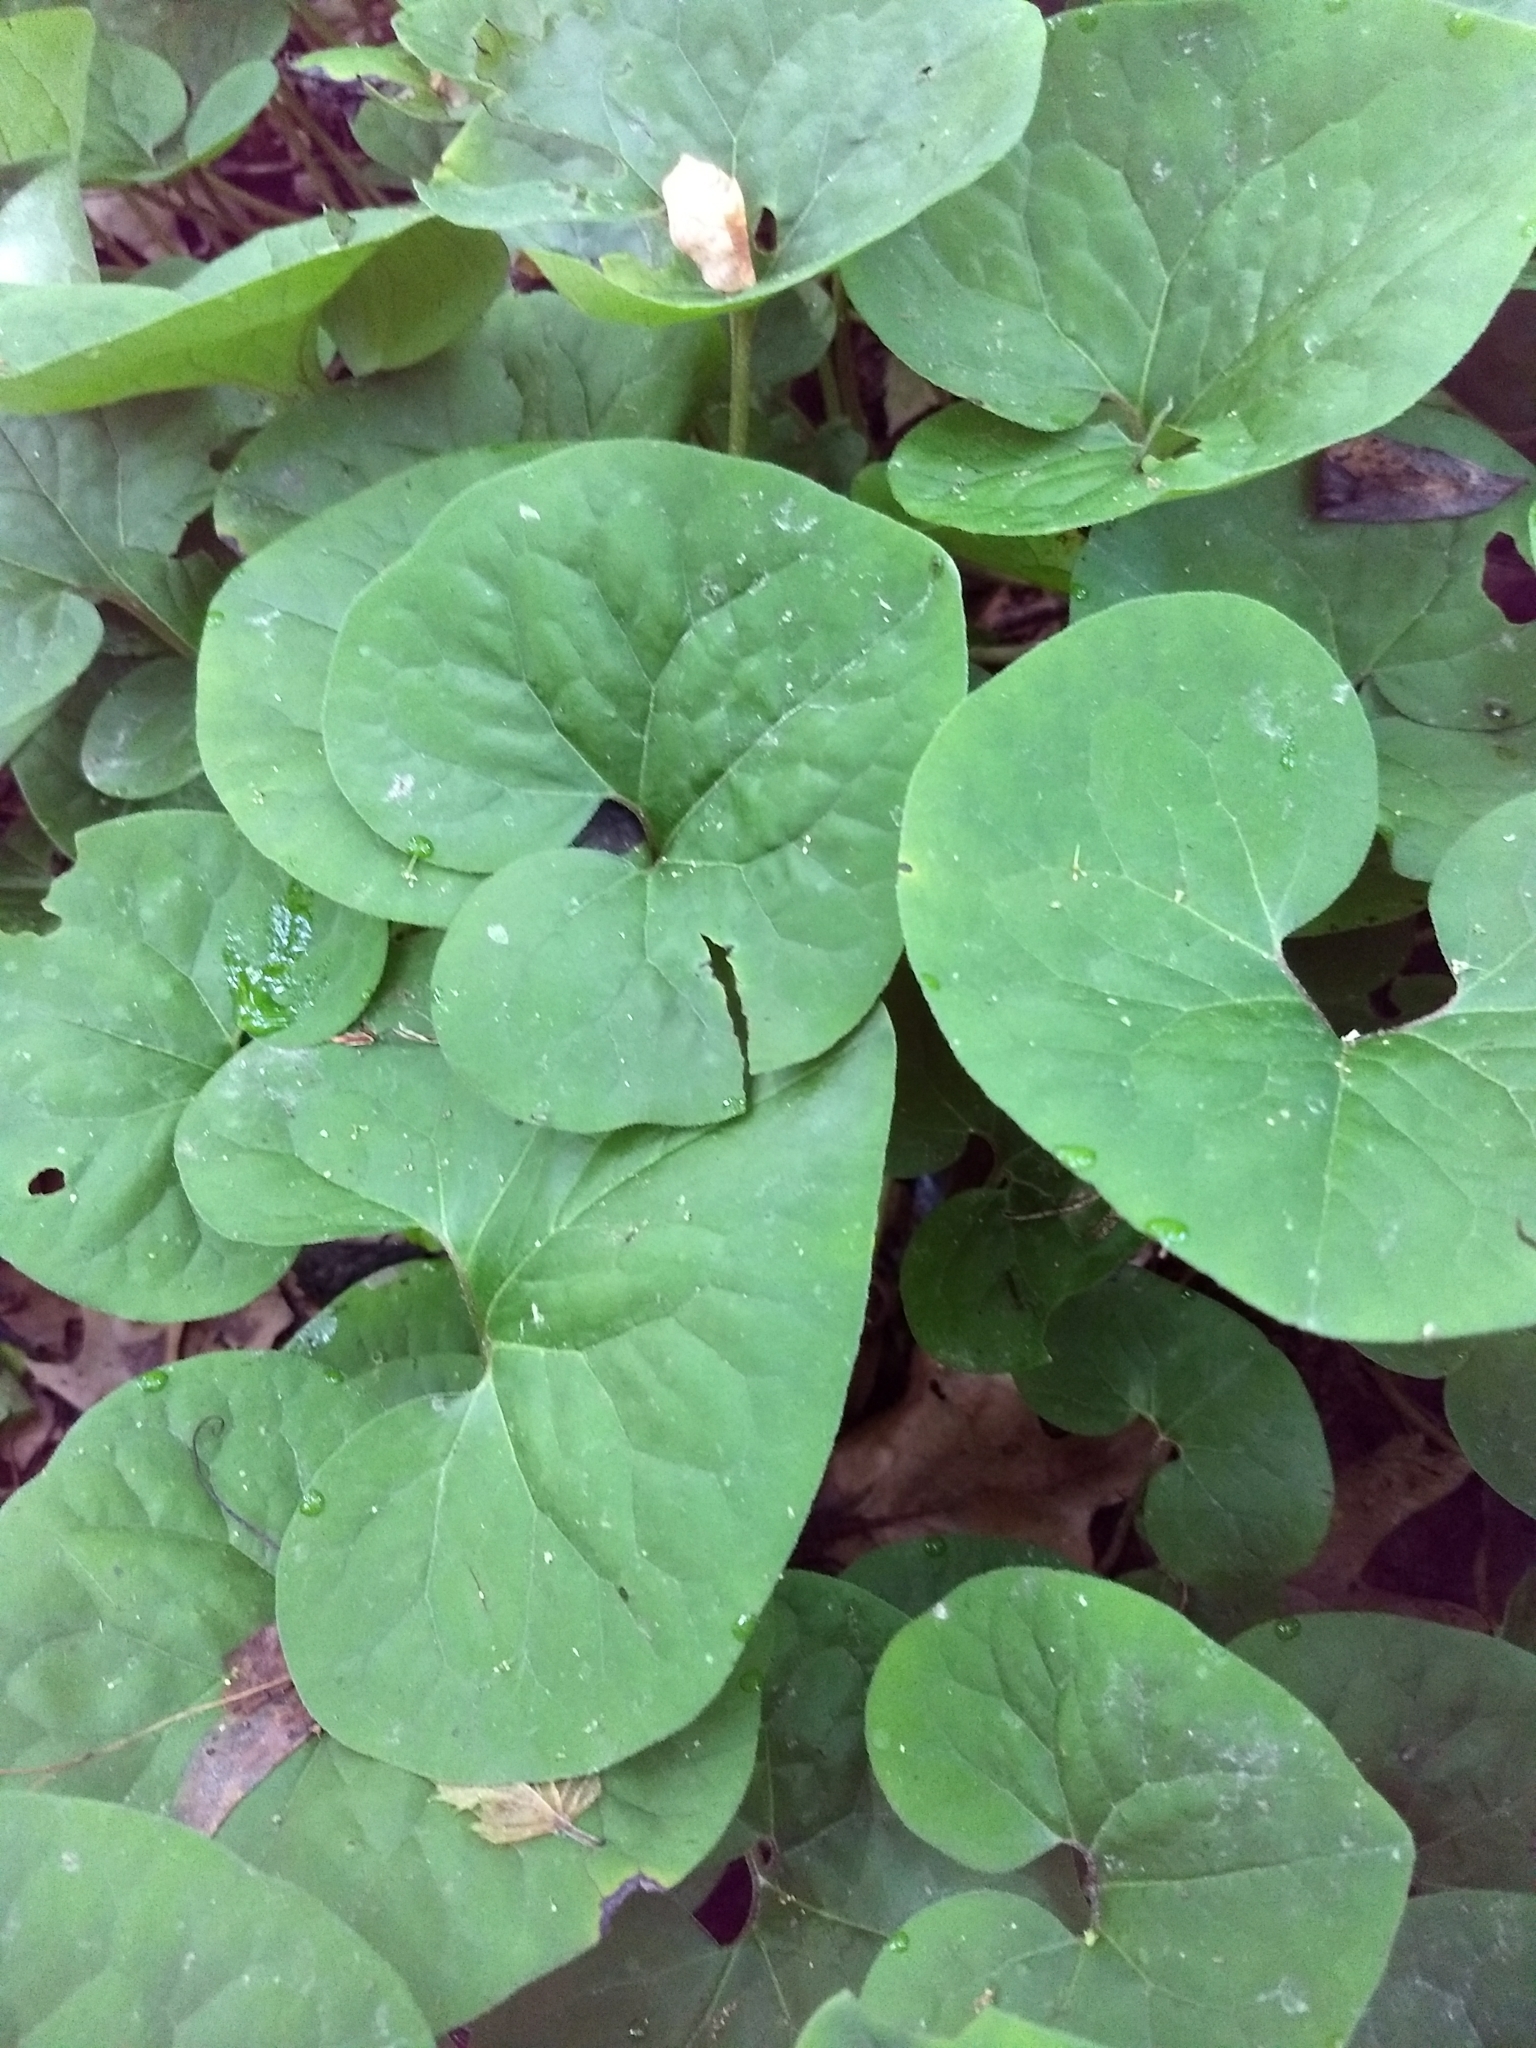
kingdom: Plantae
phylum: Tracheophyta
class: Magnoliopsida
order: Piperales
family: Aristolochiaceae
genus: Asarum
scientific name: Asarum canadense
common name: Wild ginger
